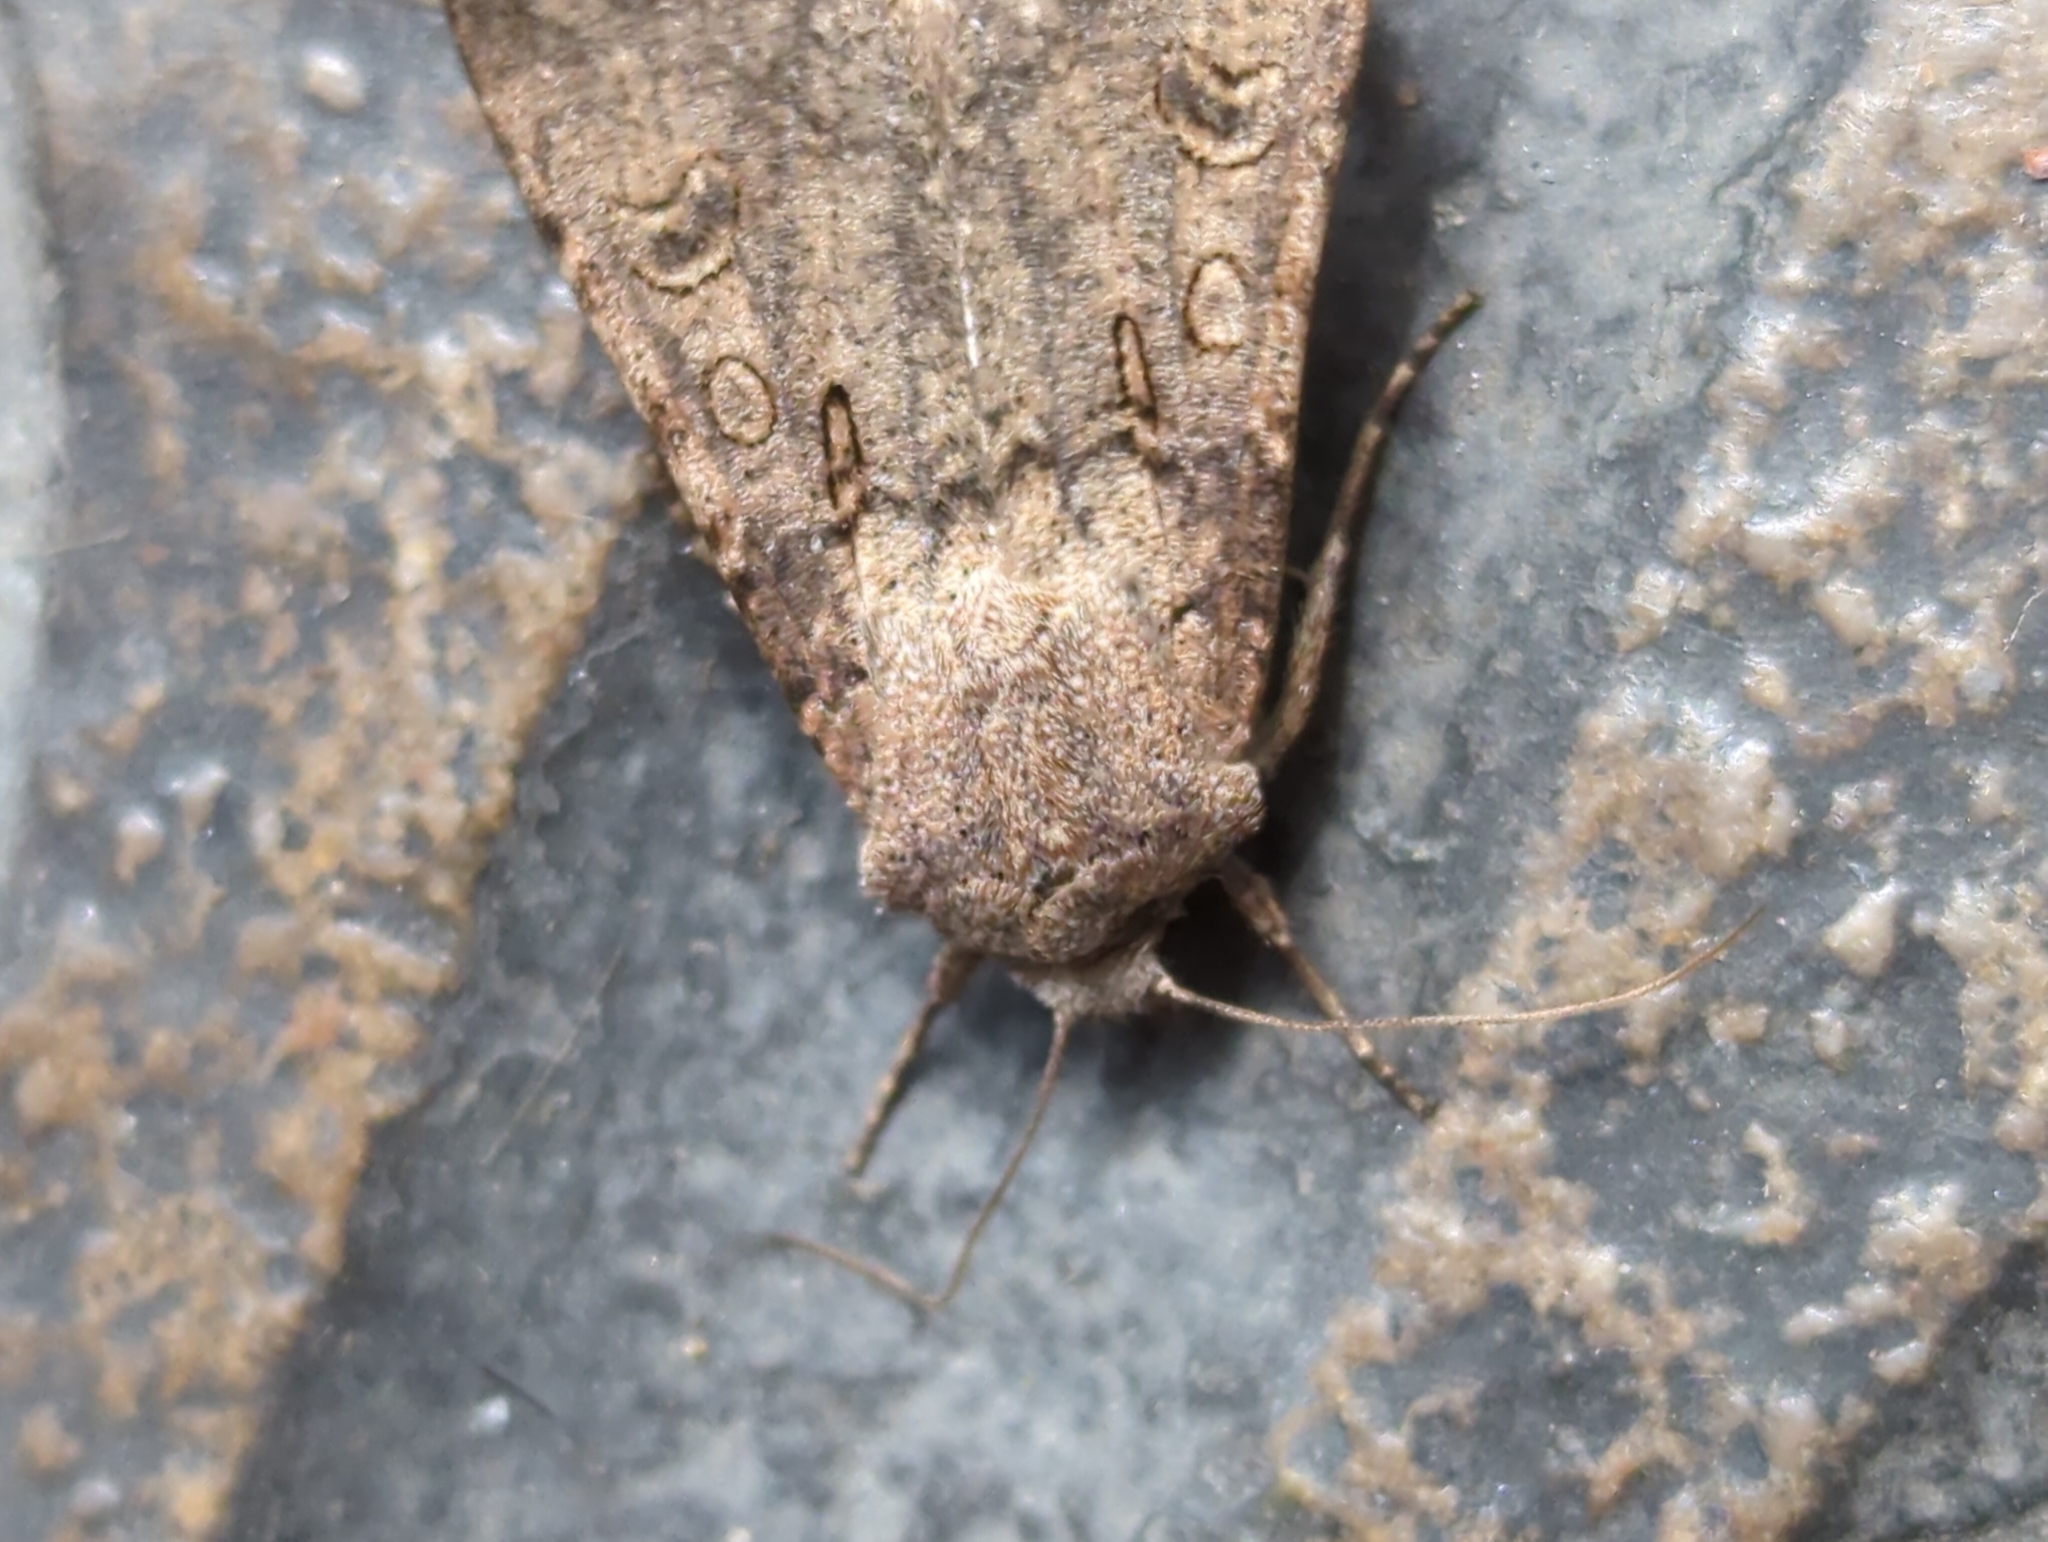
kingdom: Animalia
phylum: Arthropoda
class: Insecta
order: Lepidoptera
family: Noctuidae
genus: Agrotis
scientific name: Agrotis segetum
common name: Turnip moth
